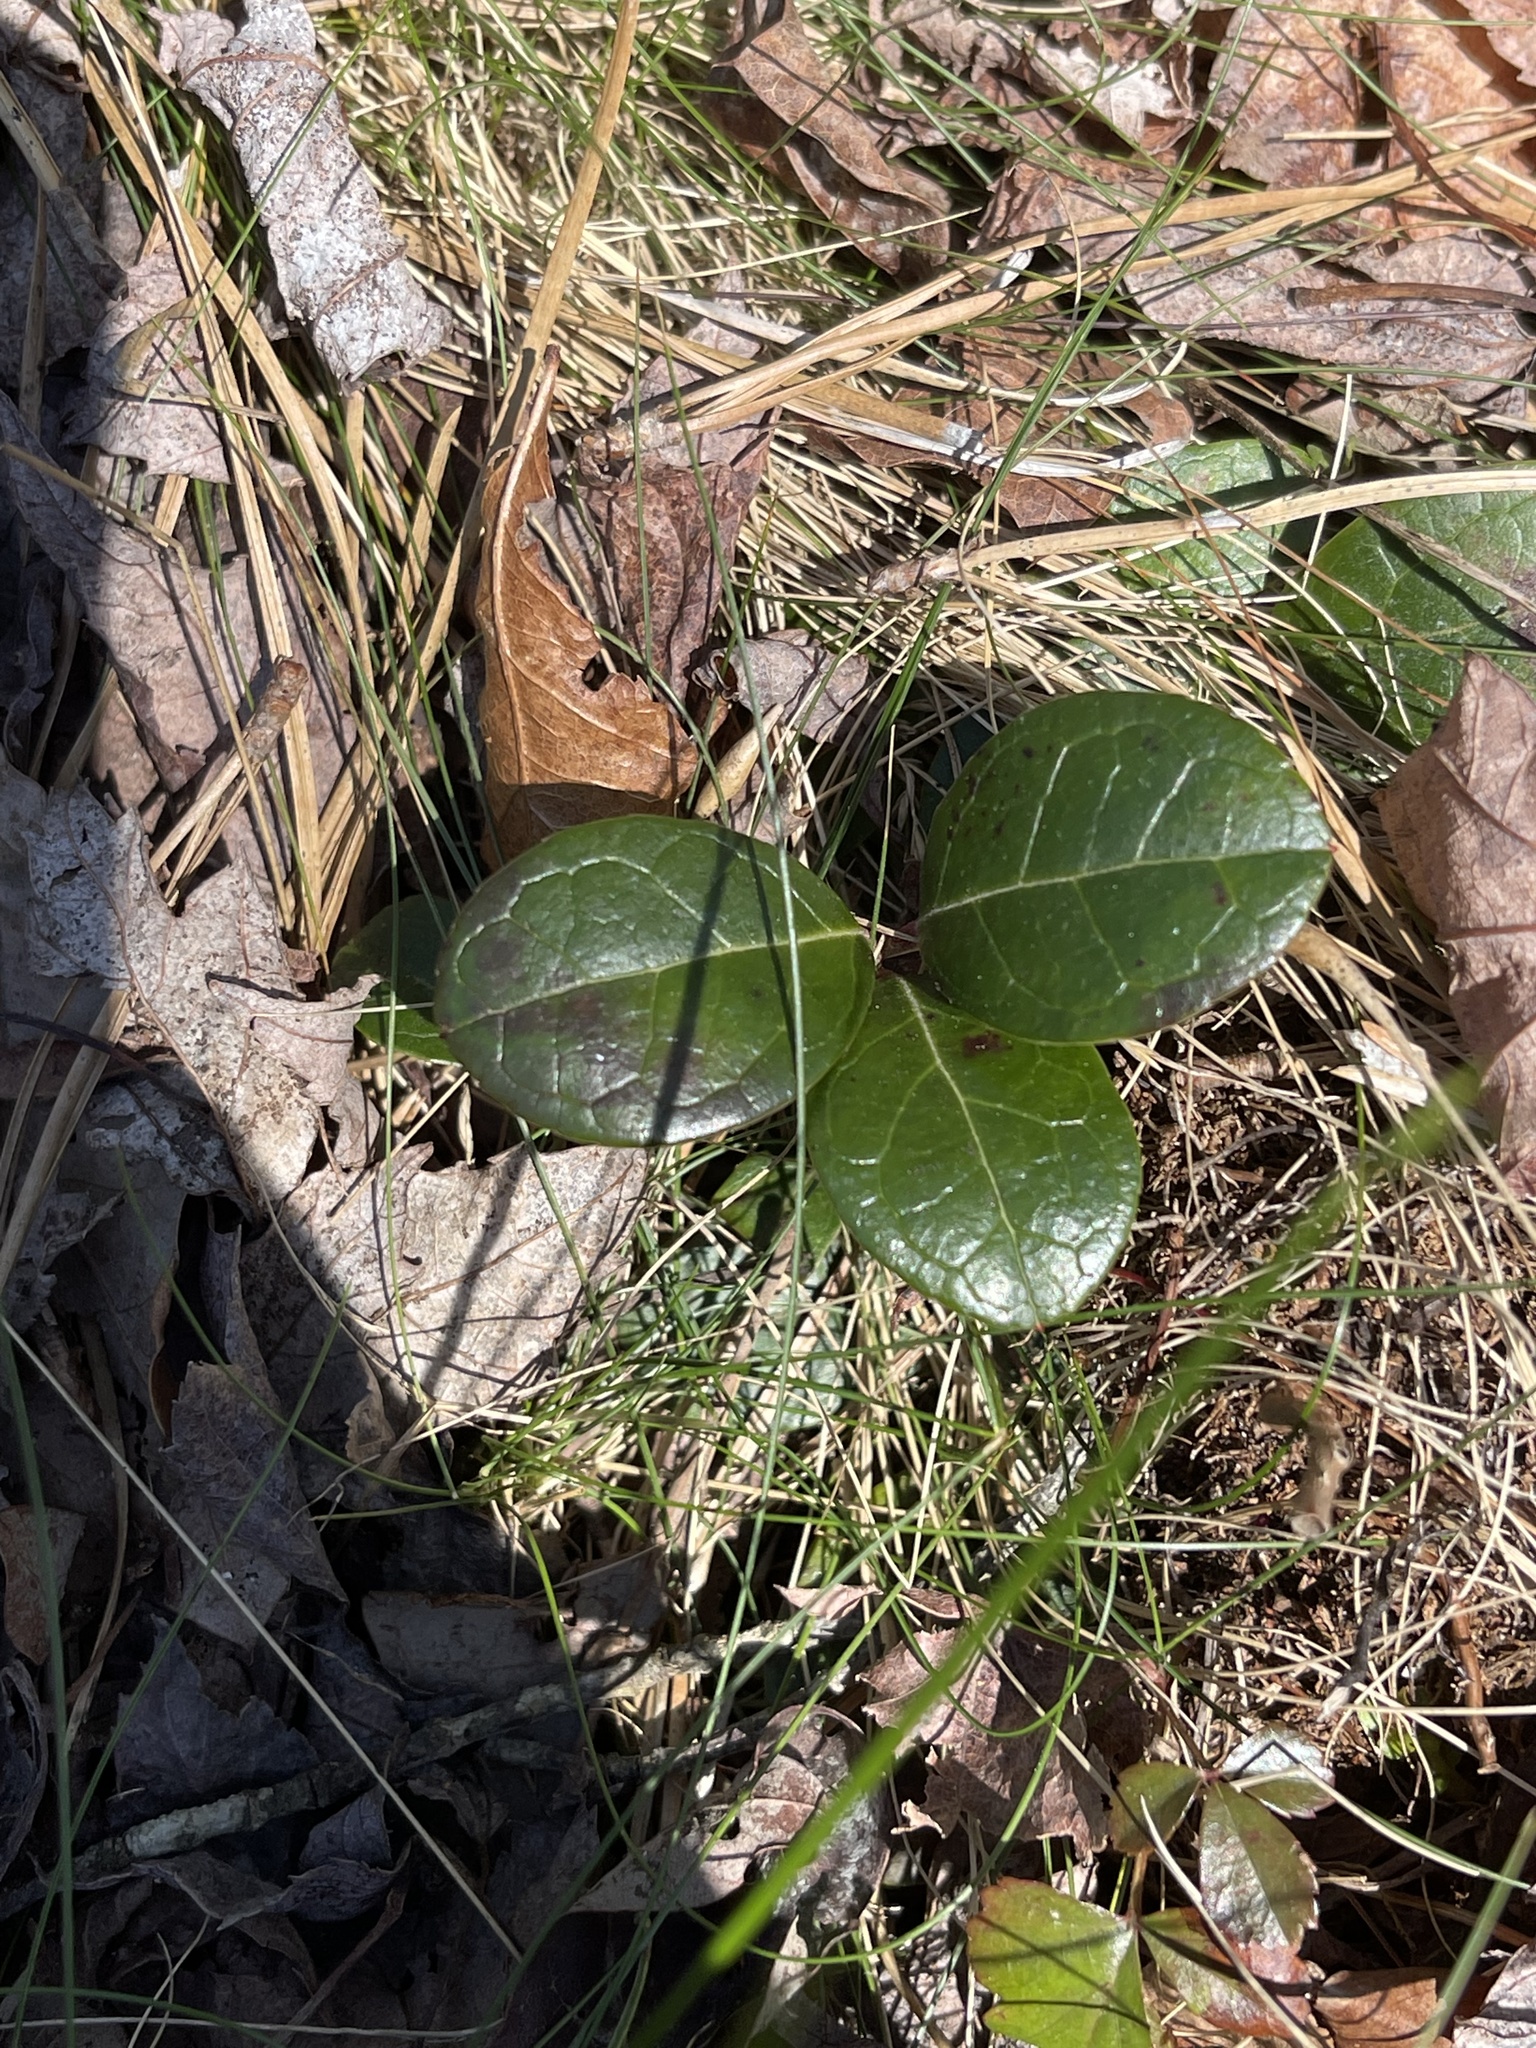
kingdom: Plantae
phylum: Tracheophyta
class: Magnoliopsida
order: Ericales
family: Ericaceae
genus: Gaultheria
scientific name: Gaultheria procumbens
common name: Checkerberry
